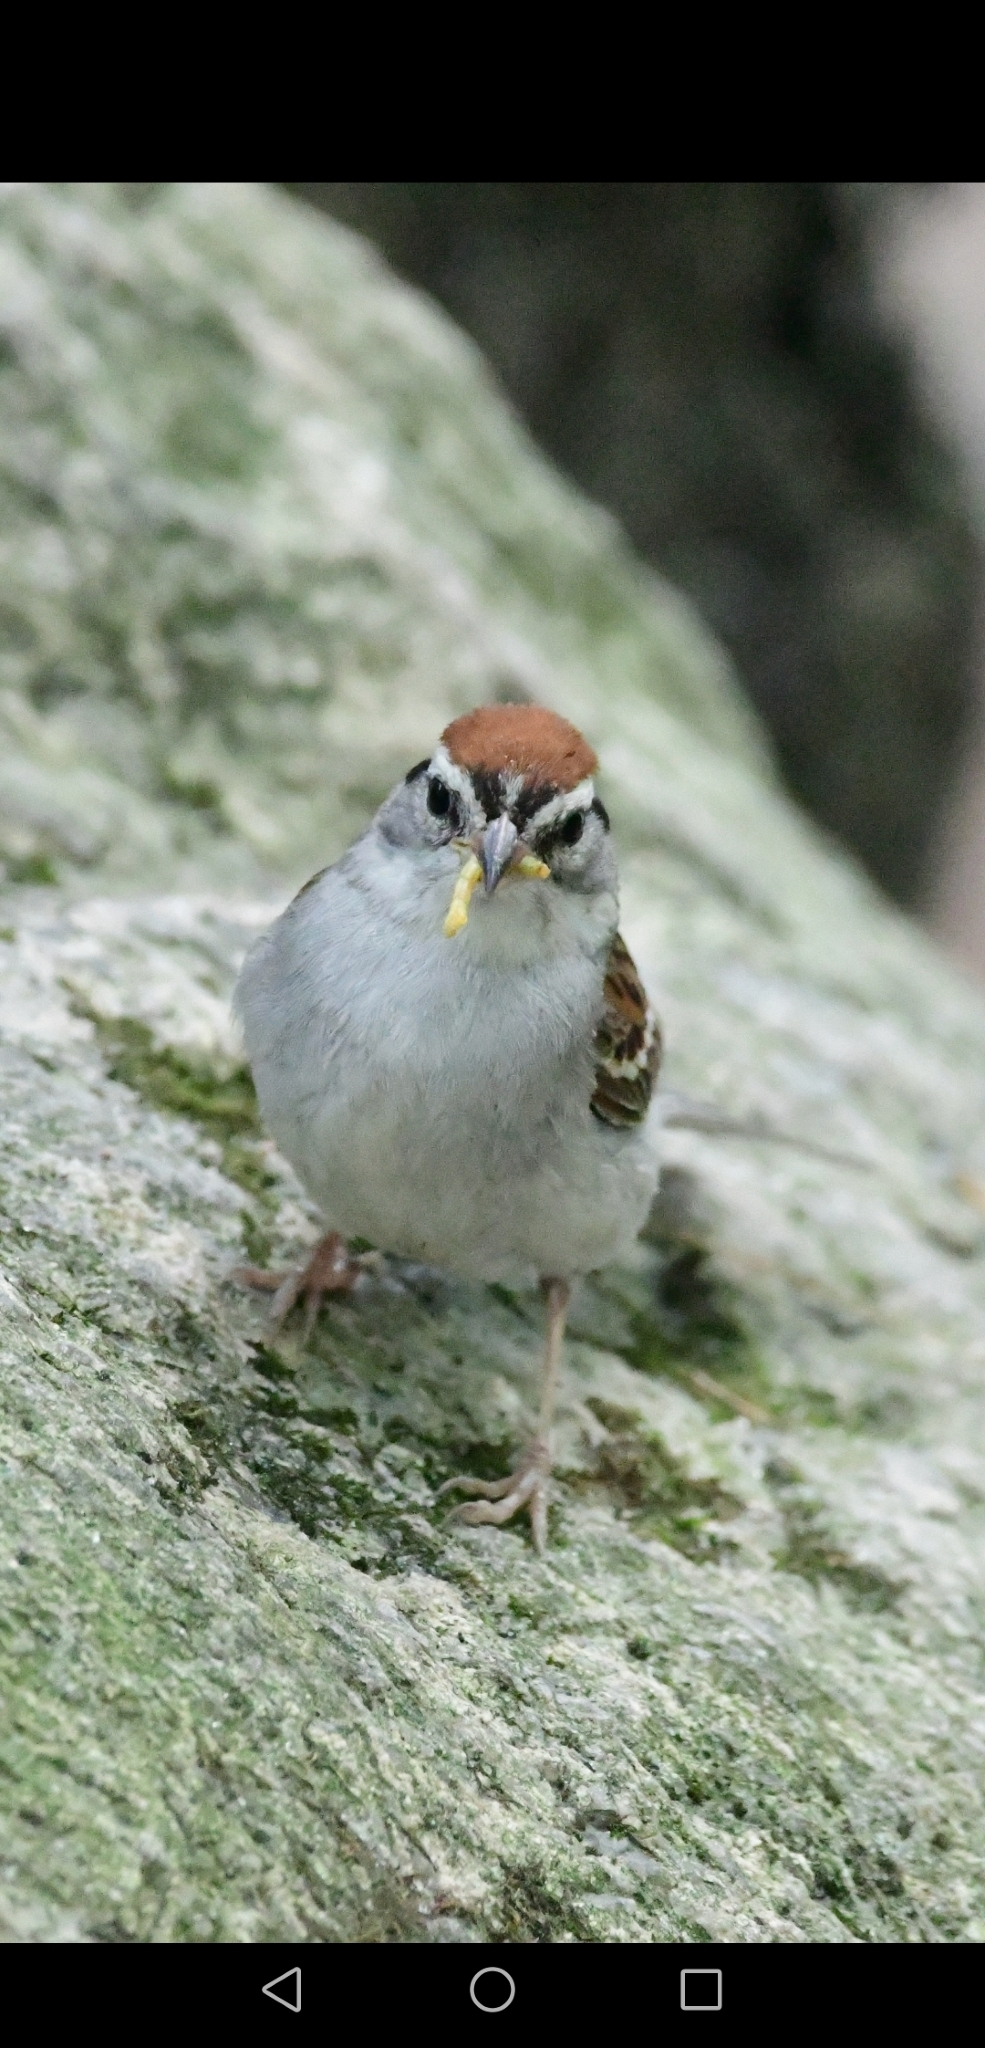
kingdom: Animalia
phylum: Chordata
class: Aves
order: Passeriformes
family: Passerellidae
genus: Spizella
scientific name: Spizella passerina
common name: Chipping sparrow
